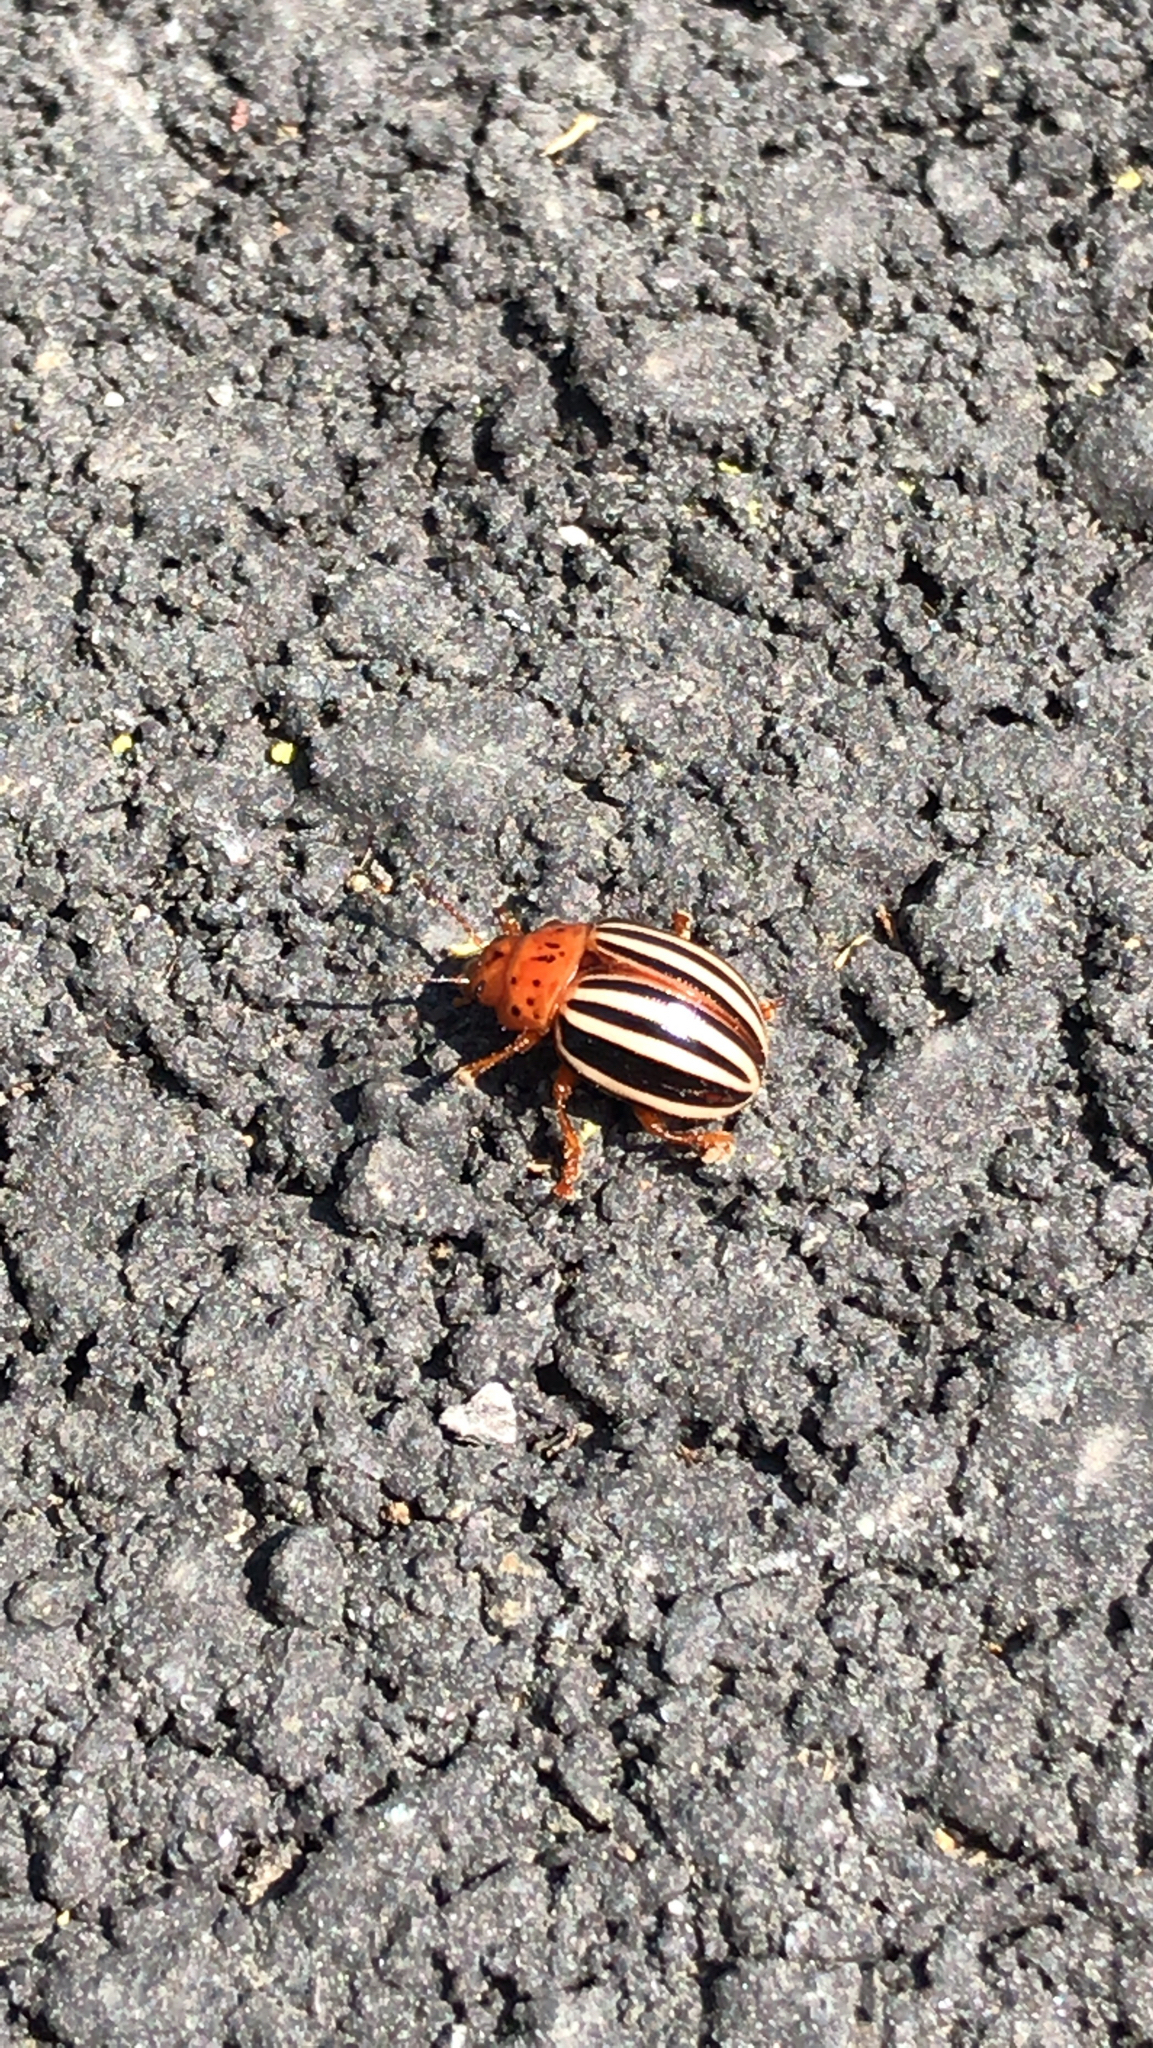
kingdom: Animalia
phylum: Arthropoda
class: Insecta
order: Coleoptera
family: Chrysomelidae
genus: Leptinotarsa
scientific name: Leptinotarsa juncta
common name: False potato beetle
